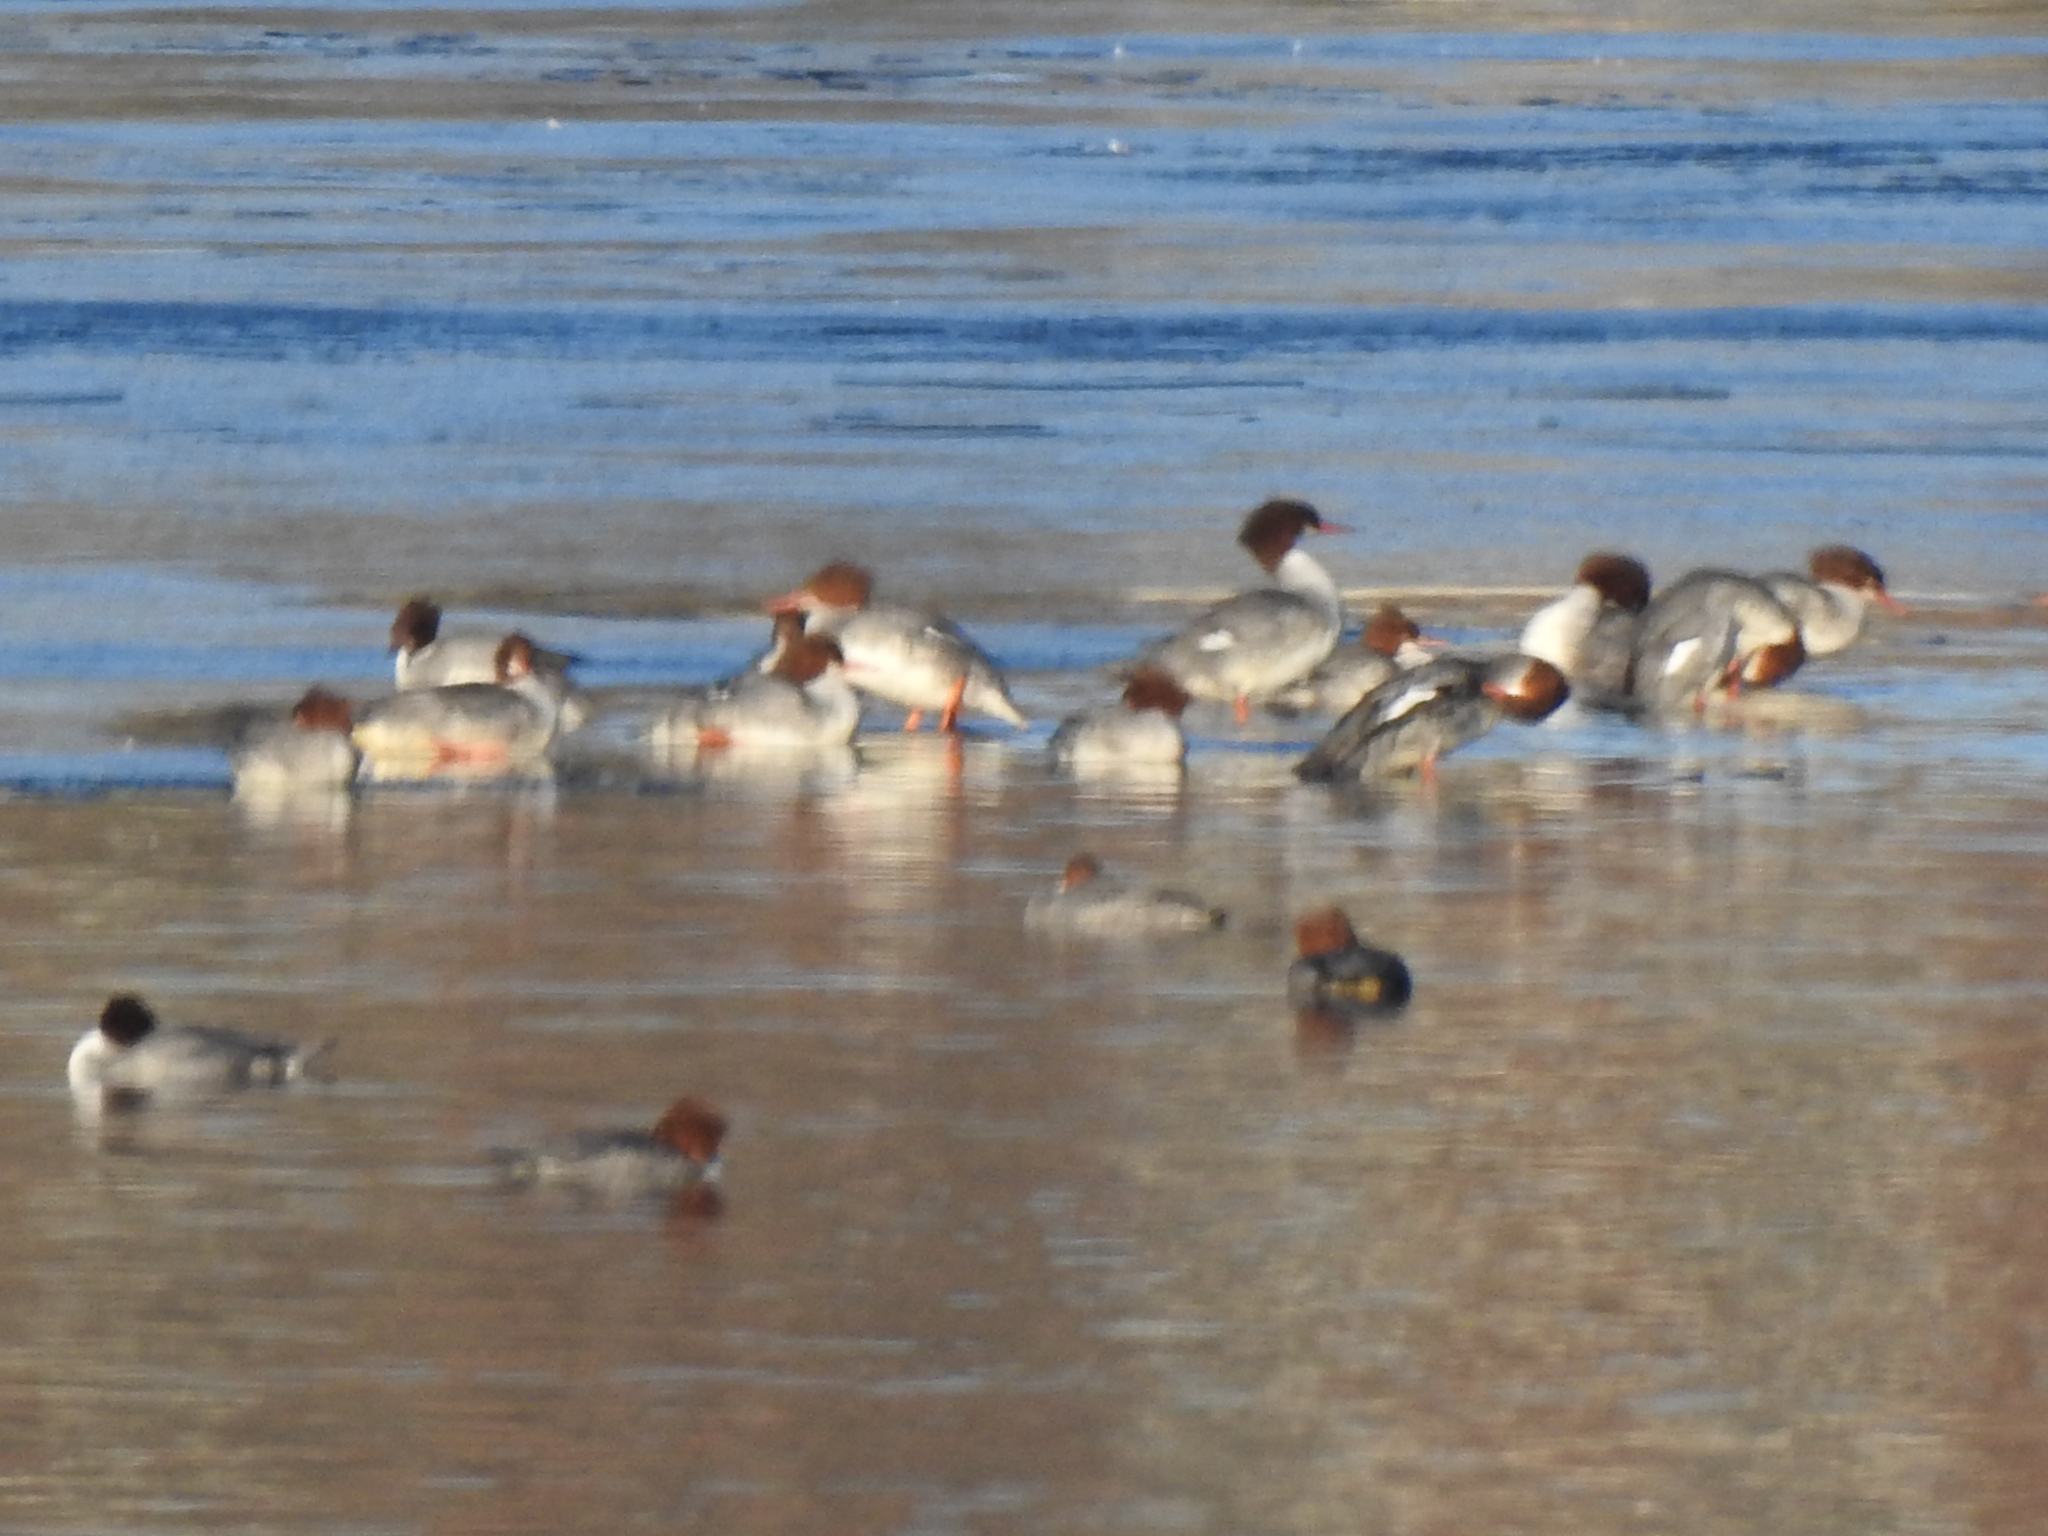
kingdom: Animalia
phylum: Chordata
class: Aves
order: Anseriformes
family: Anatidae
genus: Mergus
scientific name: Mergus merganser
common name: Common merganser
